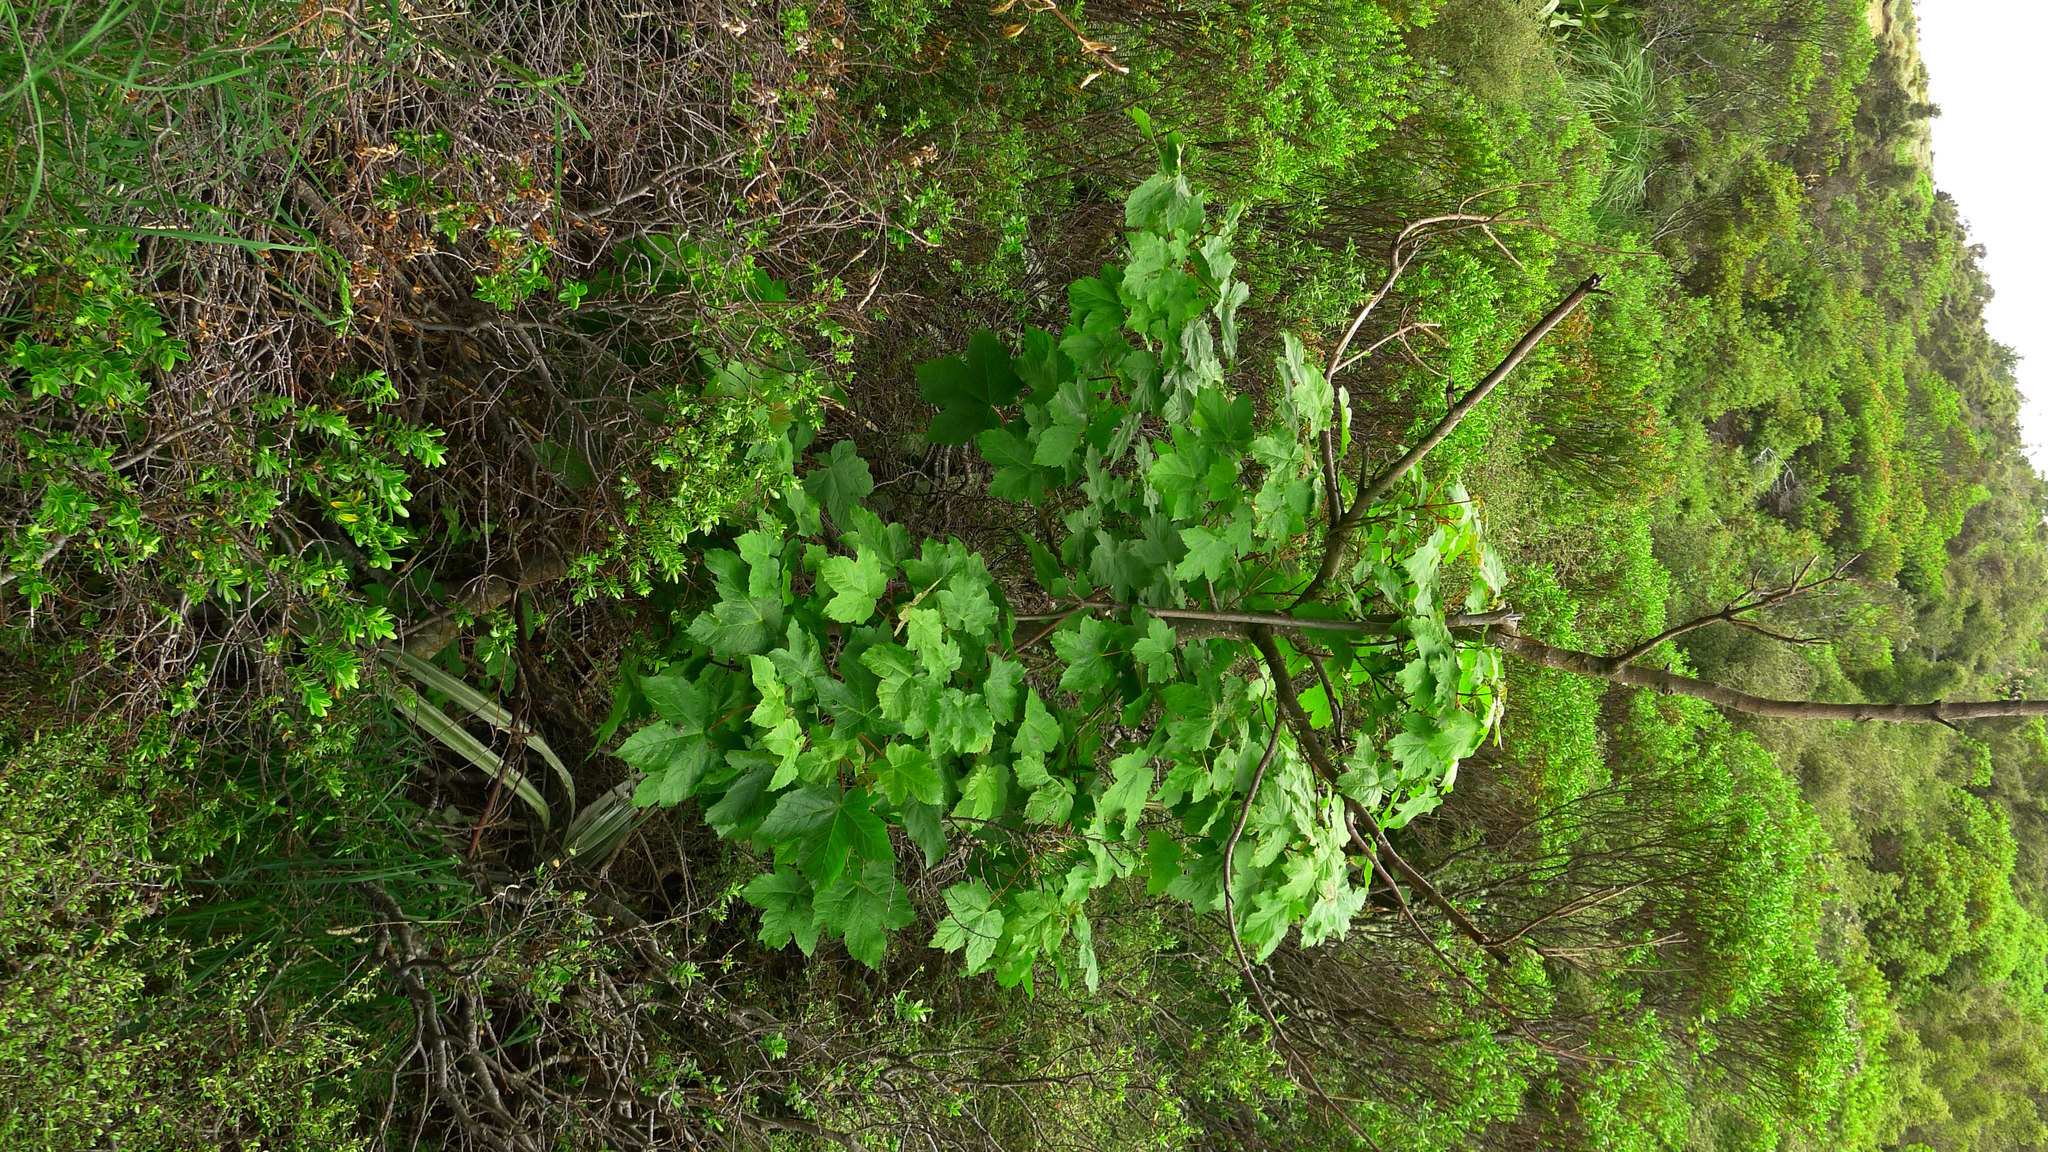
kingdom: Plantae
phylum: Tracheophyta
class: Magnoliopsida
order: Sapindales
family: Sapindaceae
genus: Acer
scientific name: Acer pseudoplatanus
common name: Sycamore
